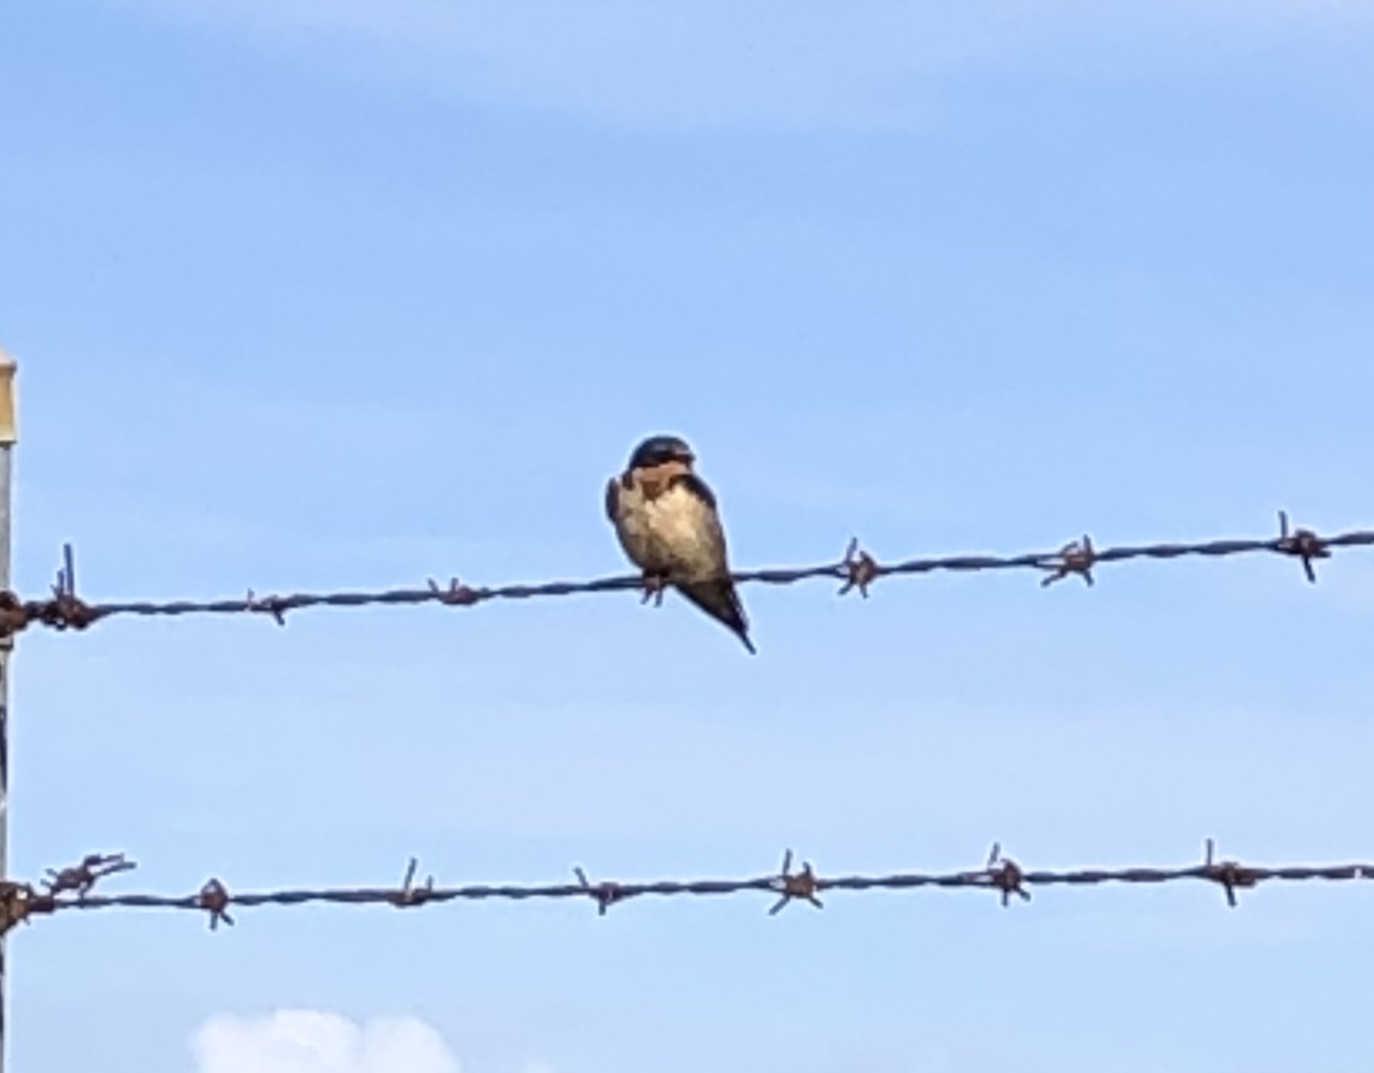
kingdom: Animalia
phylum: Chordata
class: Aves
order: Passeriformes
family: Hirundinidae
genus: Hirundo
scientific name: Hirundo rustica
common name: Barn swallow
